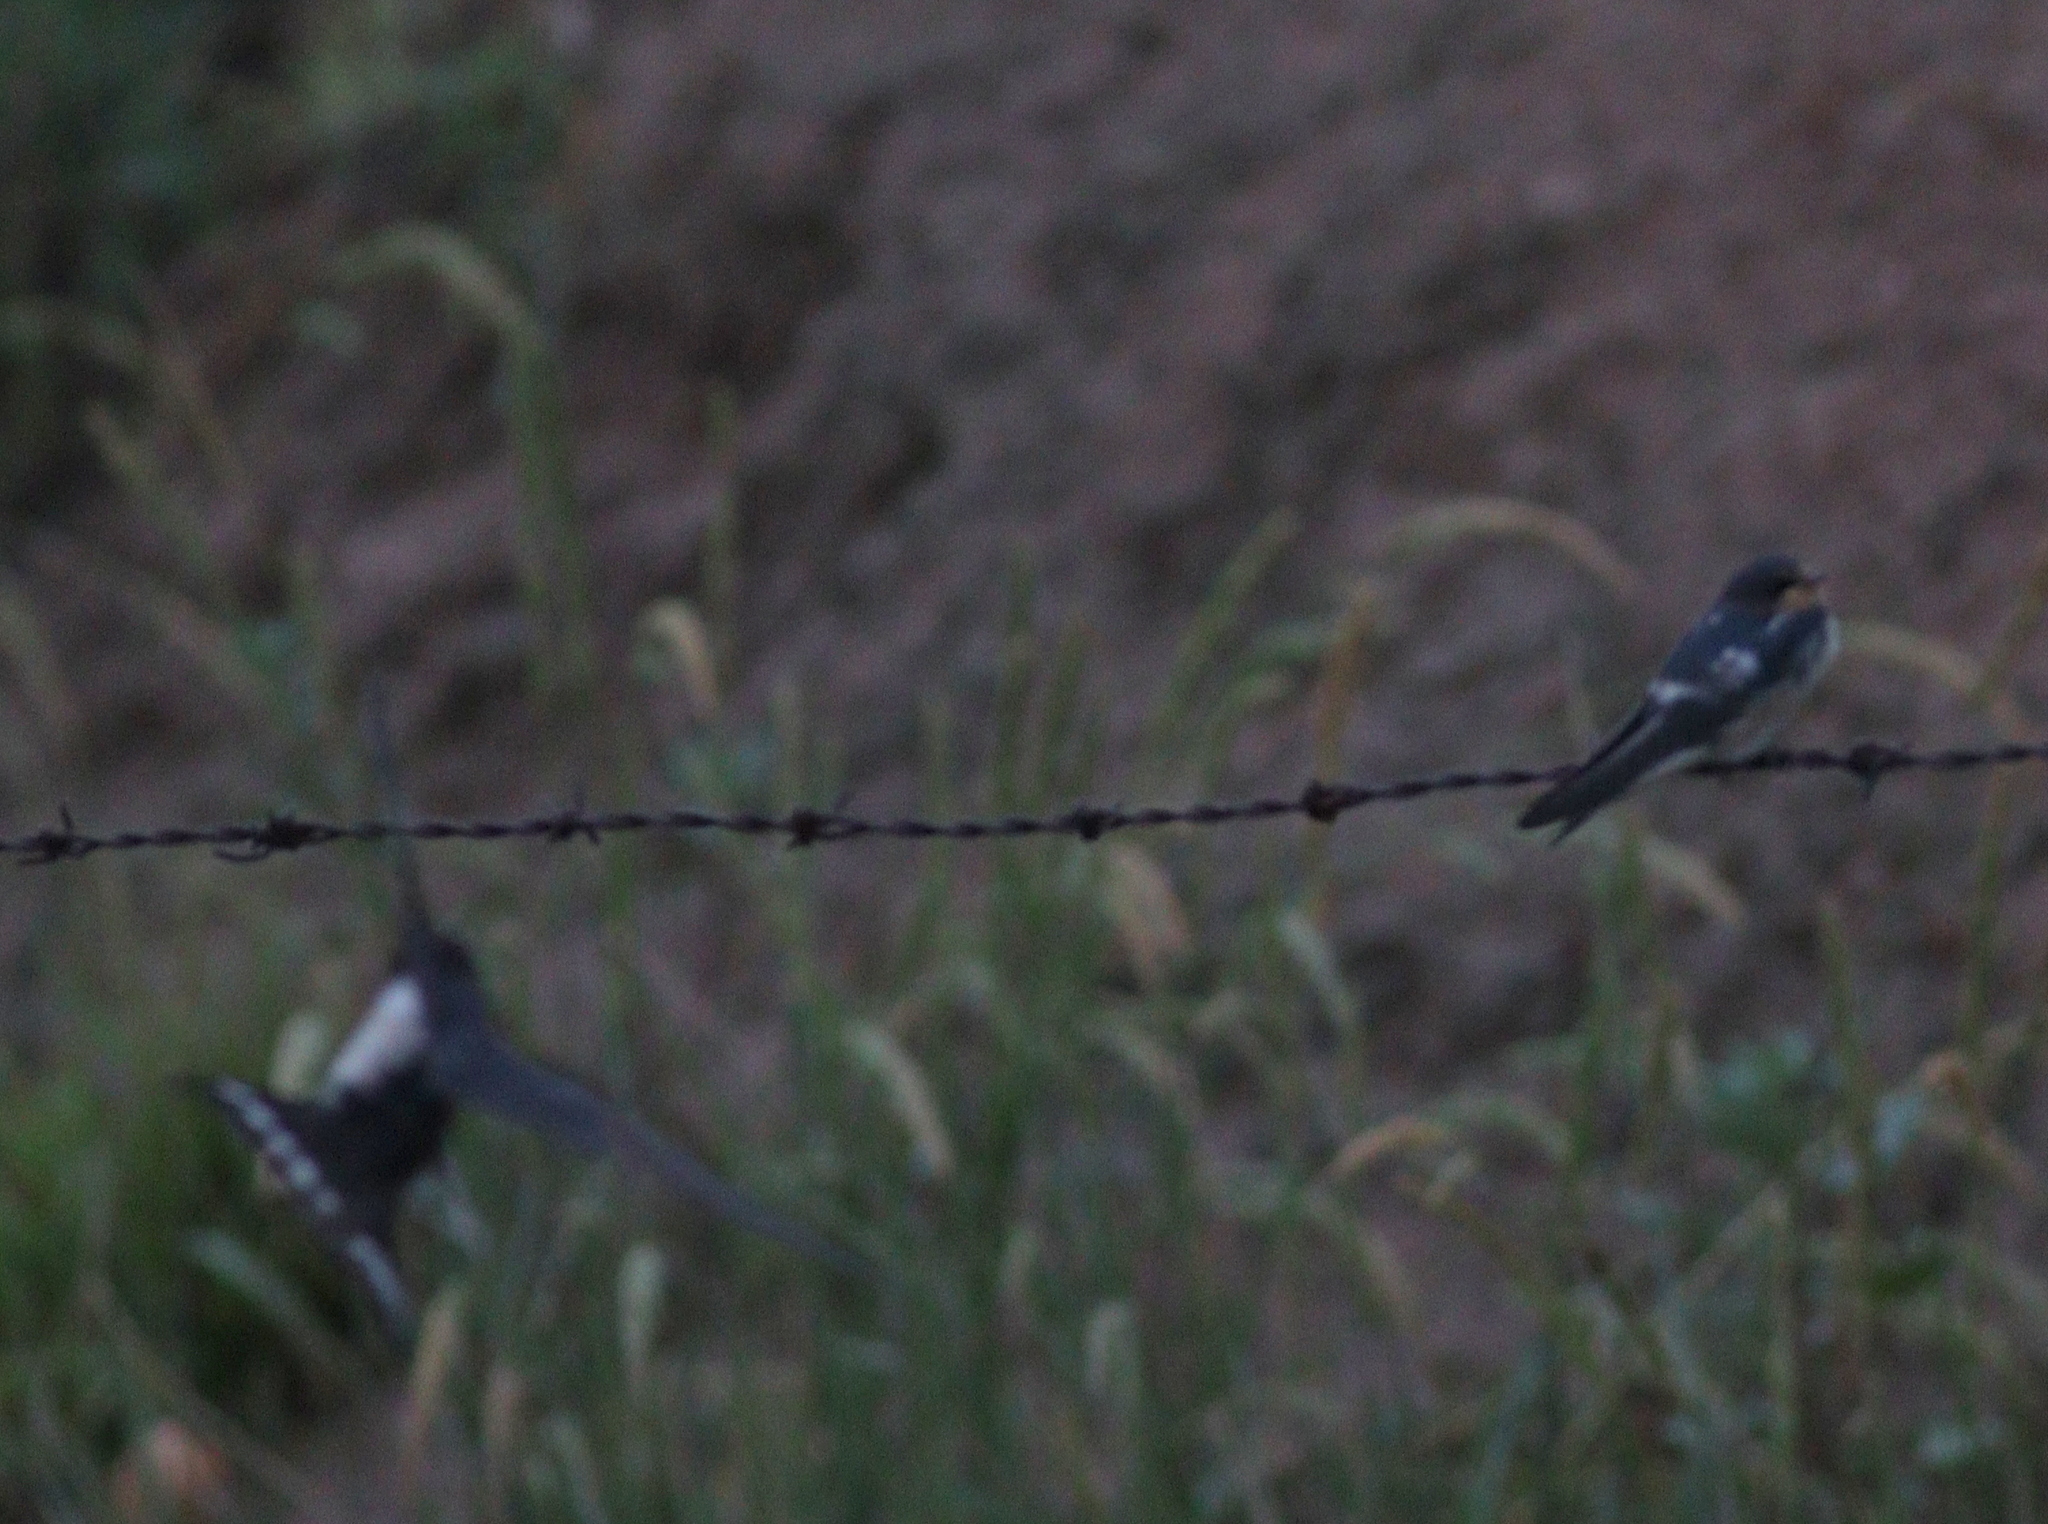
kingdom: Animalia
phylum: Chordata
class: Aves
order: Passeriformes
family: Hirundinidae
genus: Hirundo
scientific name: Hirundo rustica
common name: Barn swallow
